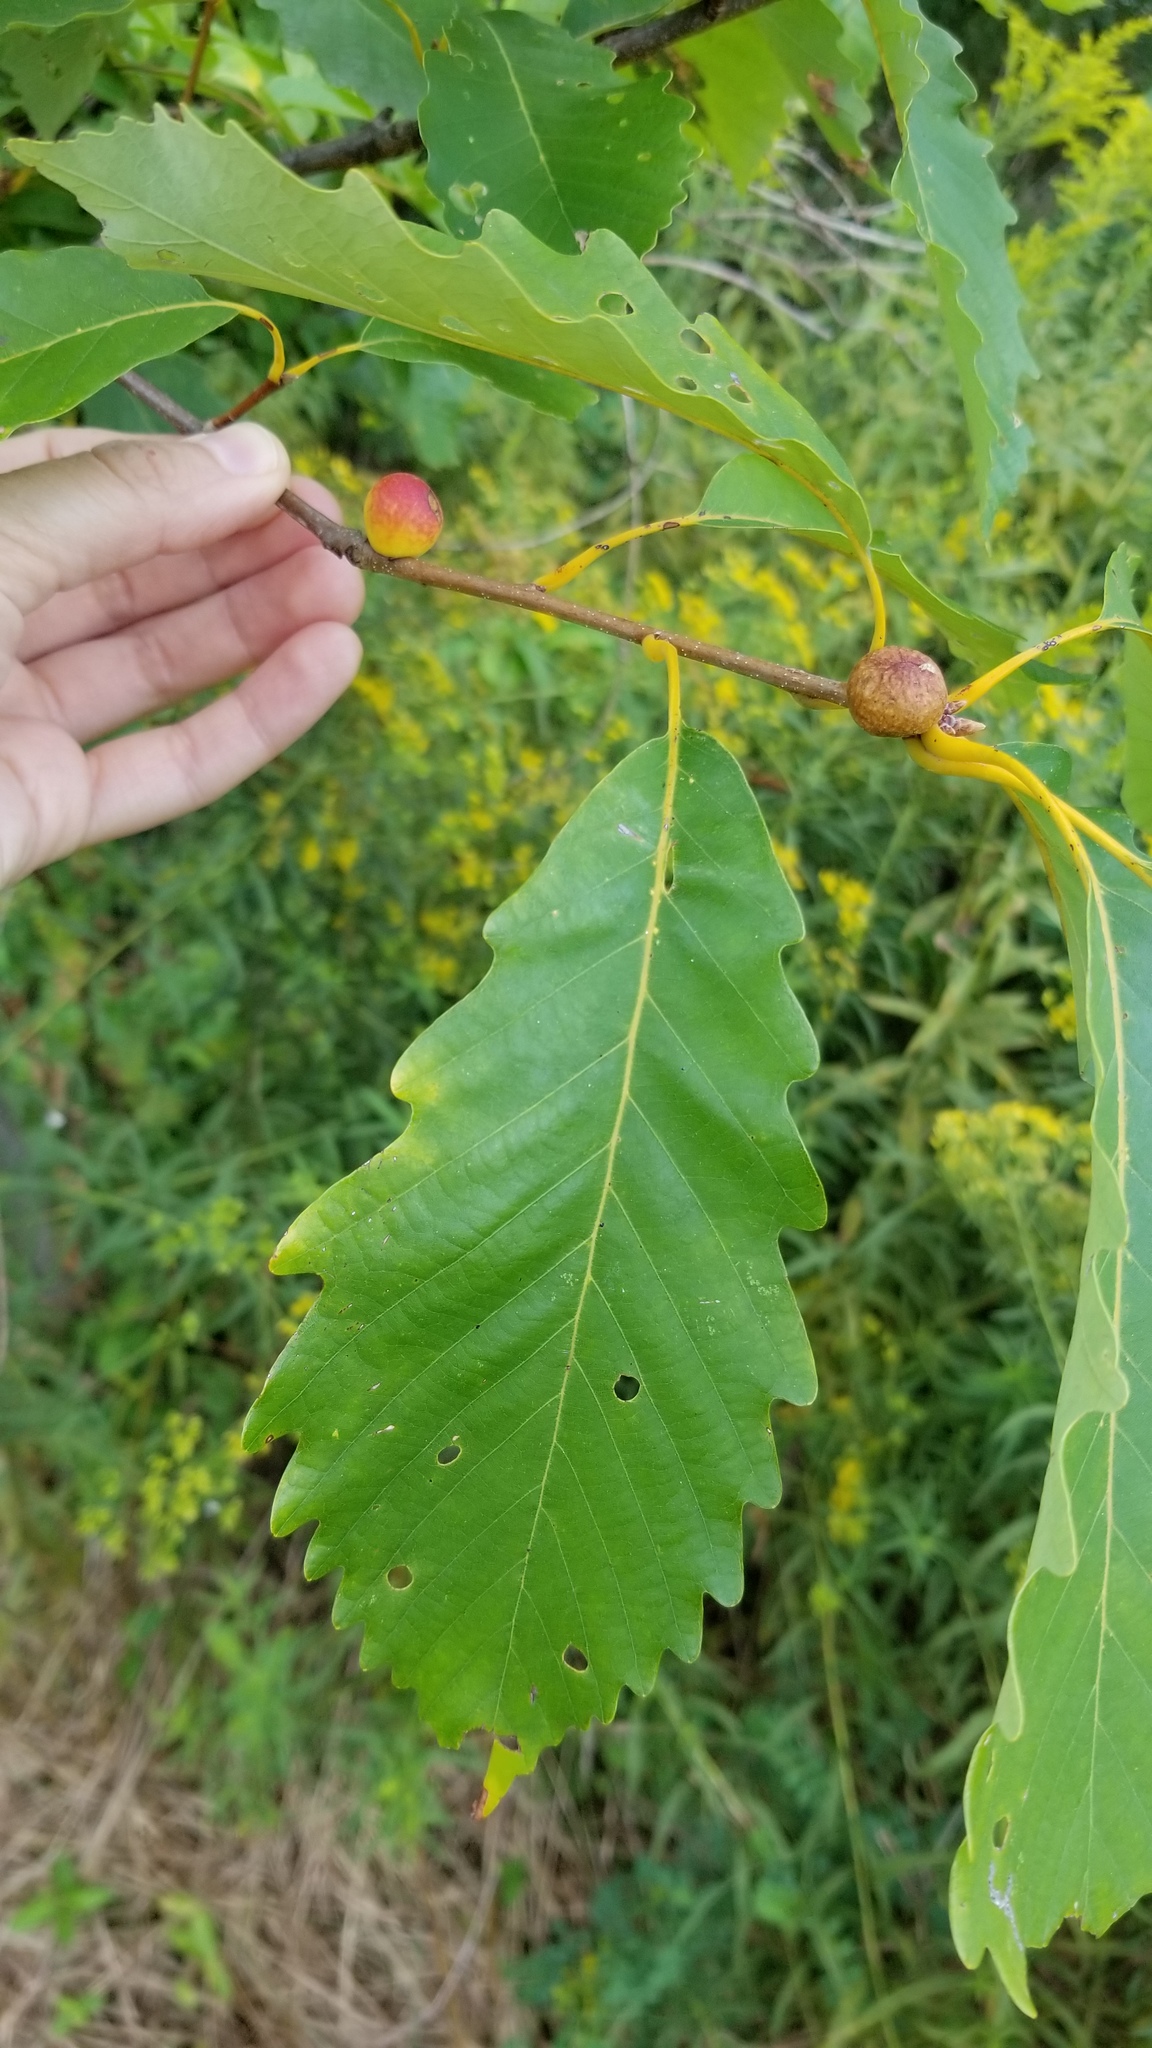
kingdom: Animalia
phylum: Arthropoda
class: Insecta
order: Hymenoptera
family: Cynipidae
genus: Disholcaspis
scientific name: Disholcaspis quercusglobulus
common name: Round bullet gall wasp
